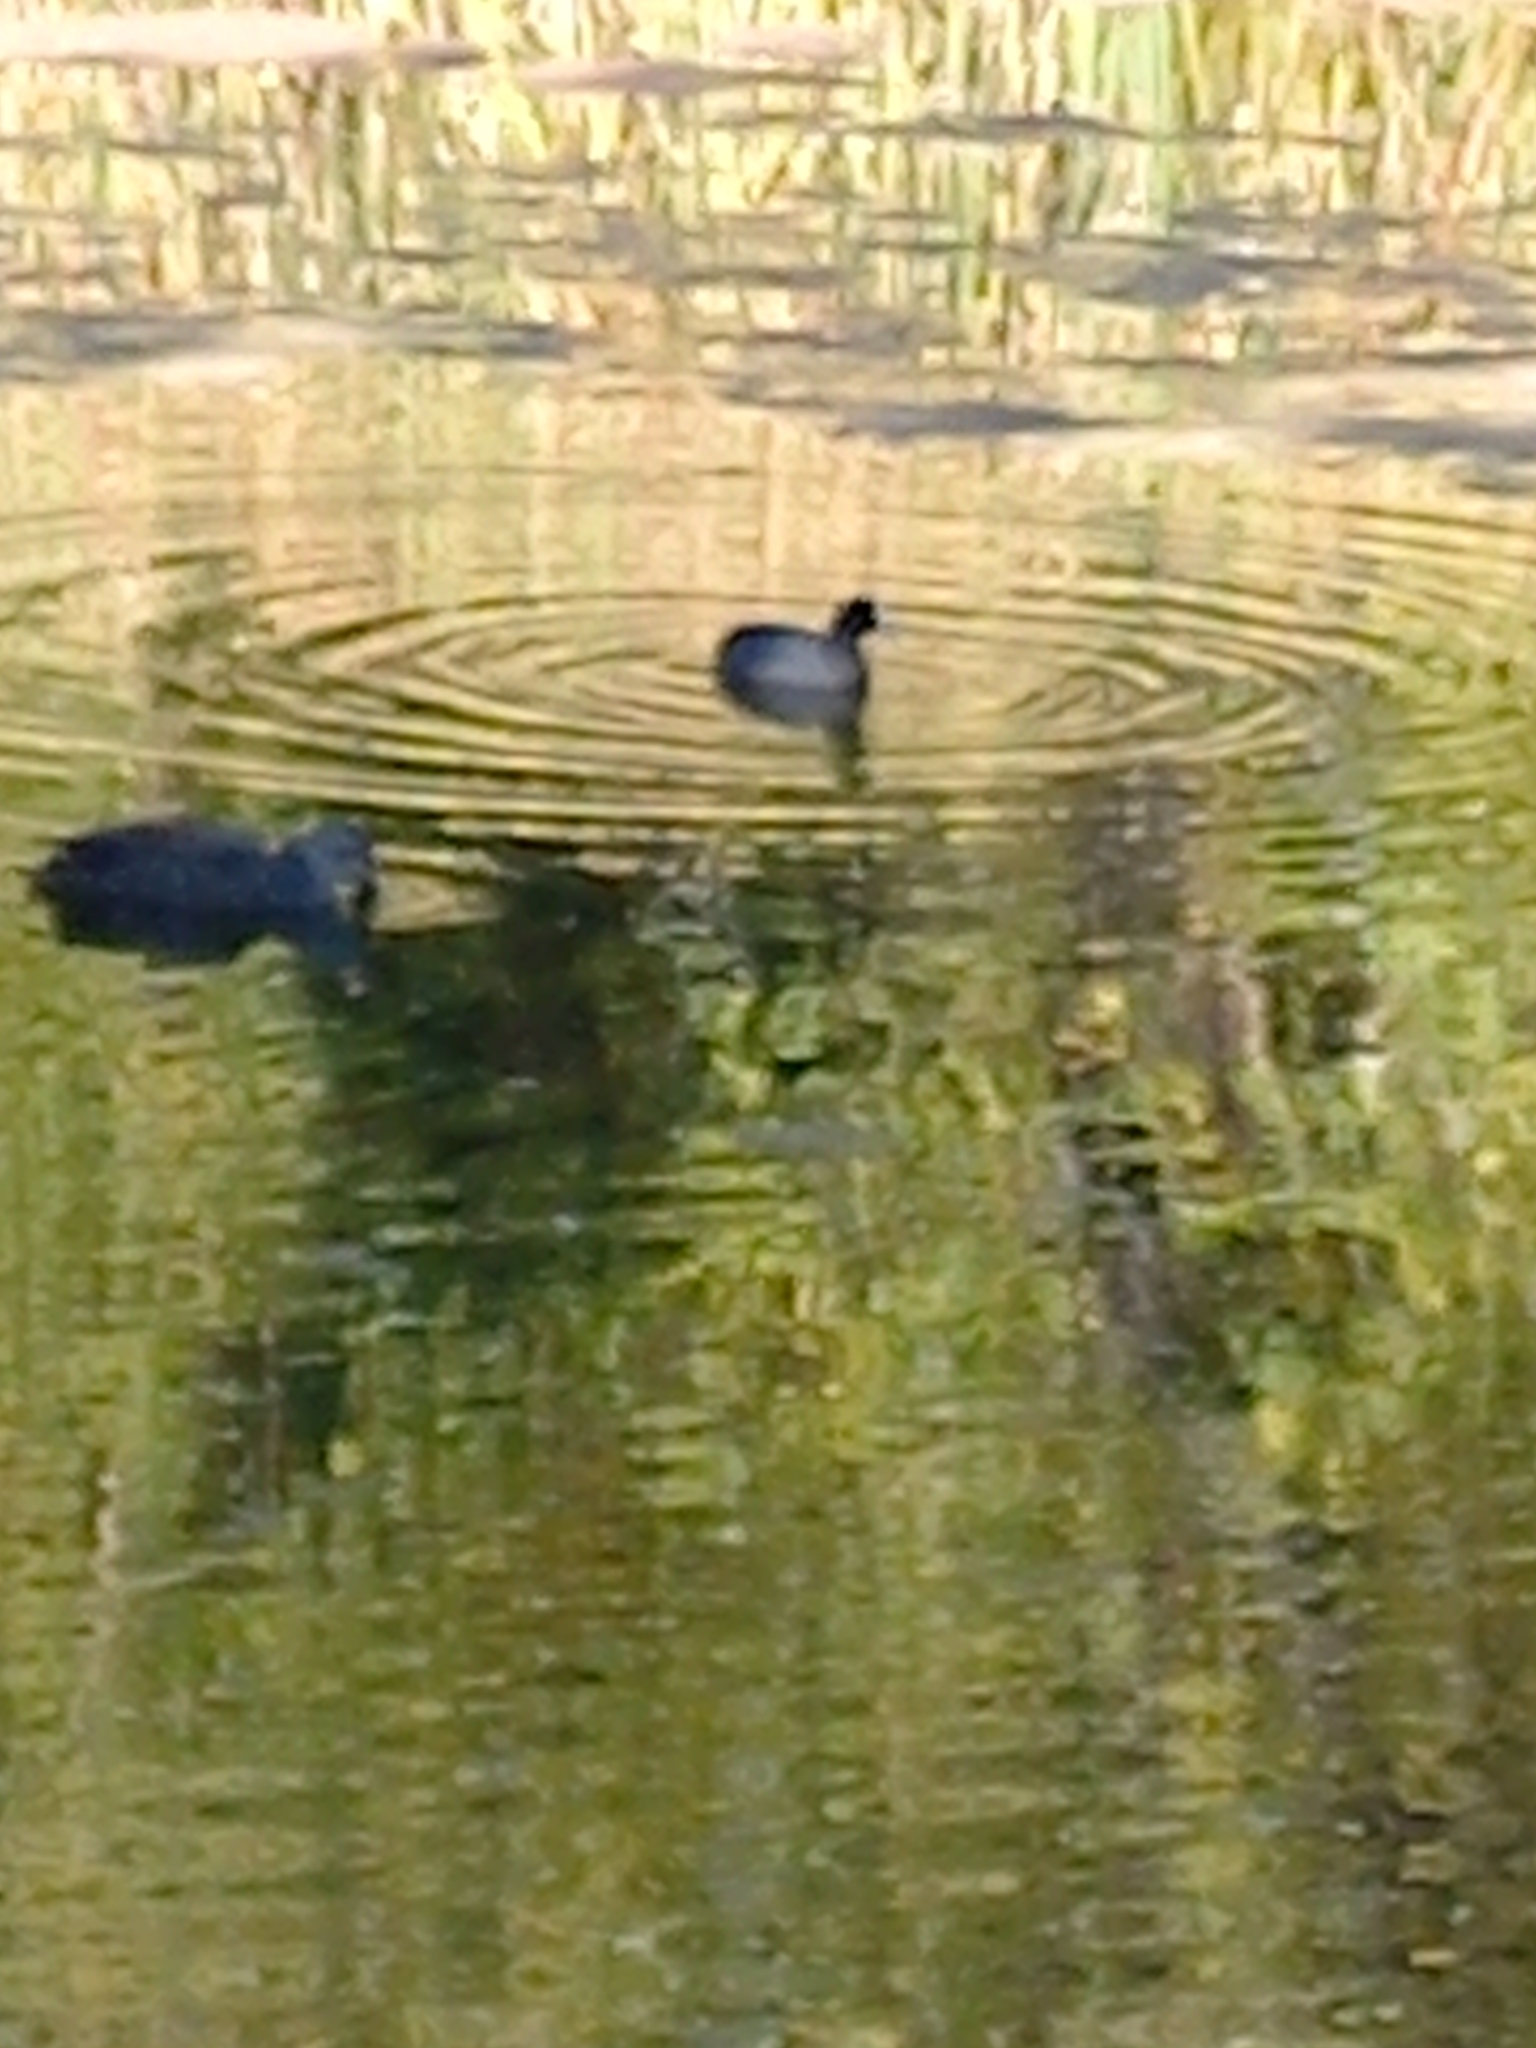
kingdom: Animalia
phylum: Chordata
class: Aves
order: Gruiformes
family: Rallidae
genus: Fulica
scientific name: Fulica atra
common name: Eurasian coot
